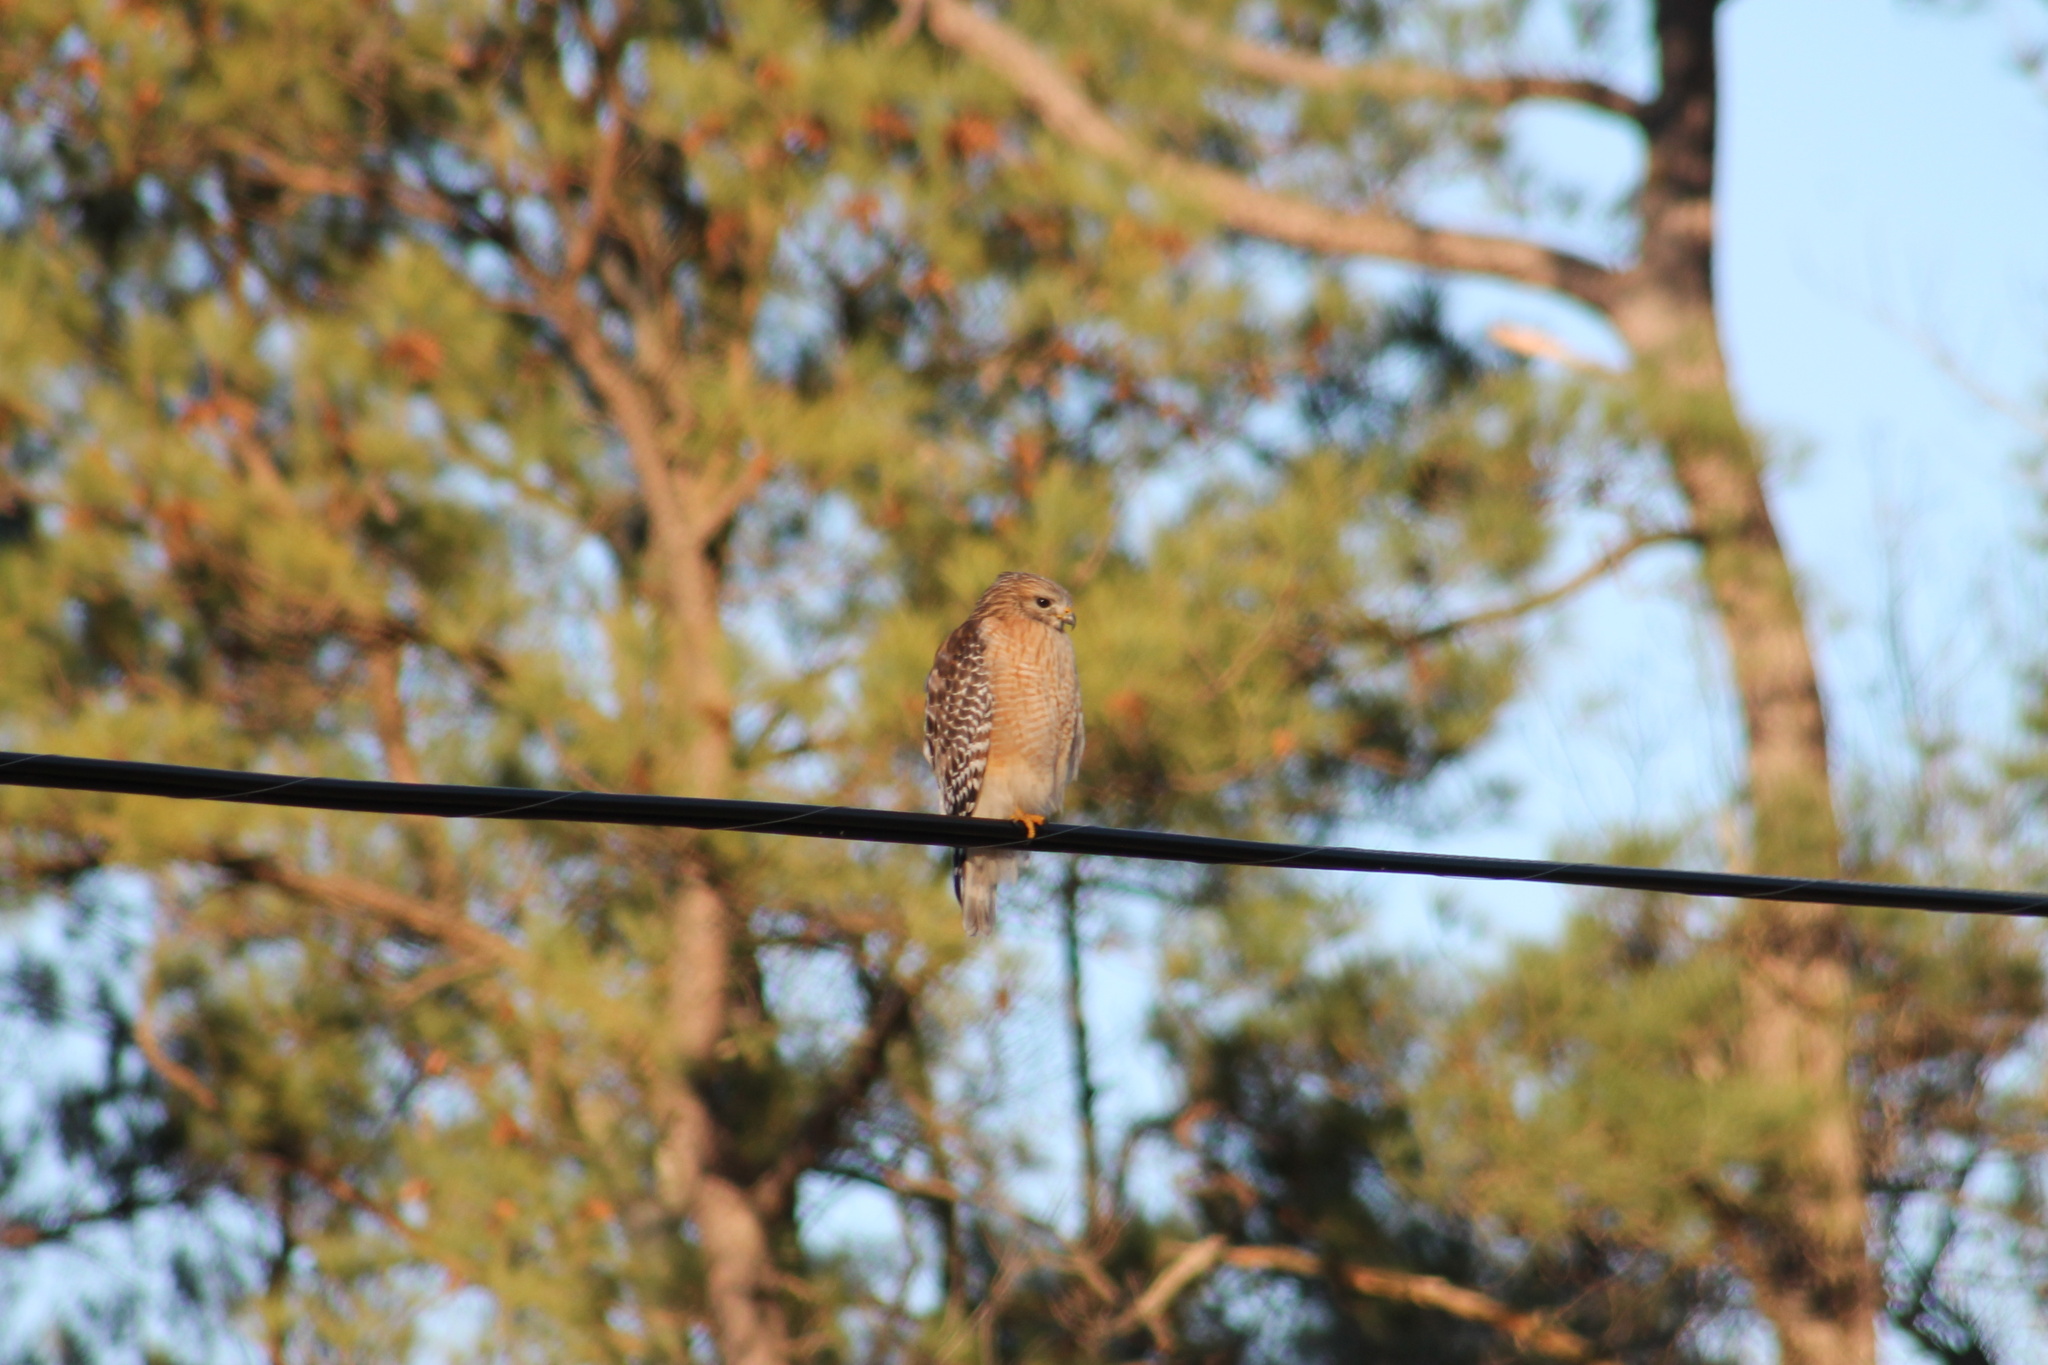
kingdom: Animalia
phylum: Chordata
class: Aves
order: Accipitriformes
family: Accipitridae
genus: Buteo
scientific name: Buteo lineatus
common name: Red-shouldered hawk
